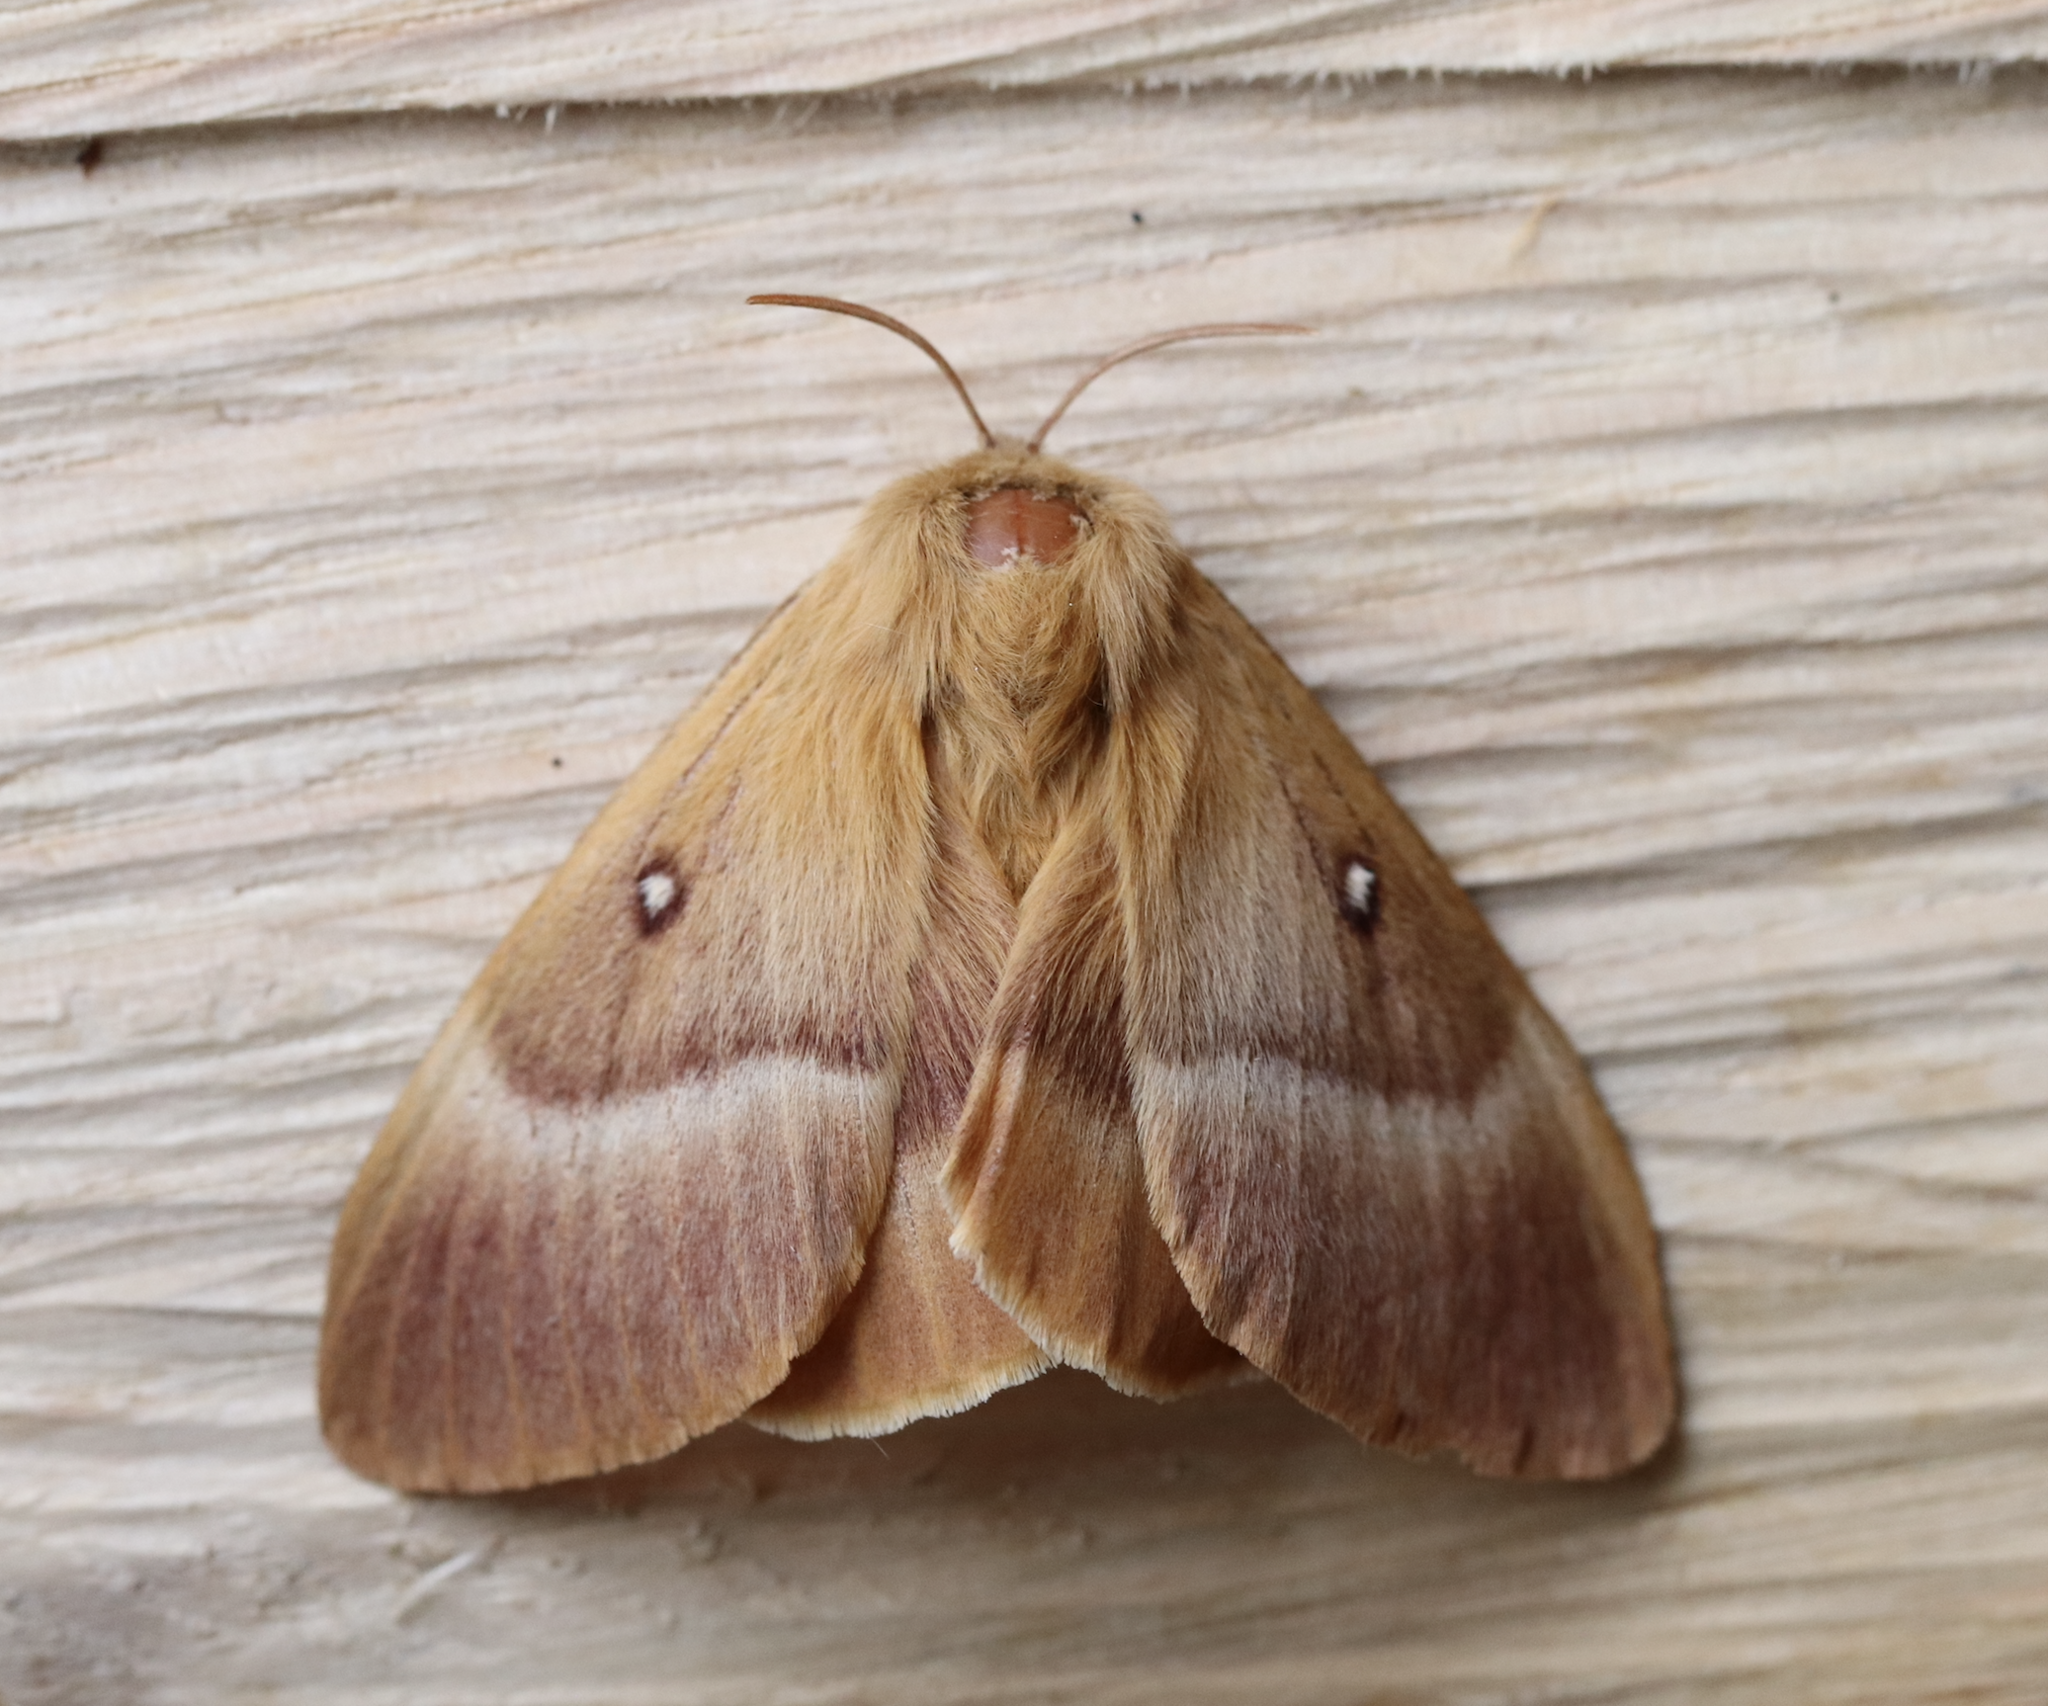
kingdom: Animalia
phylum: Arthropoda
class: Insecta
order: Lepidoptera
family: Lasiocampidae
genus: Lasiocampa
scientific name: Lasiocampa quercus
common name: Oak eggar
